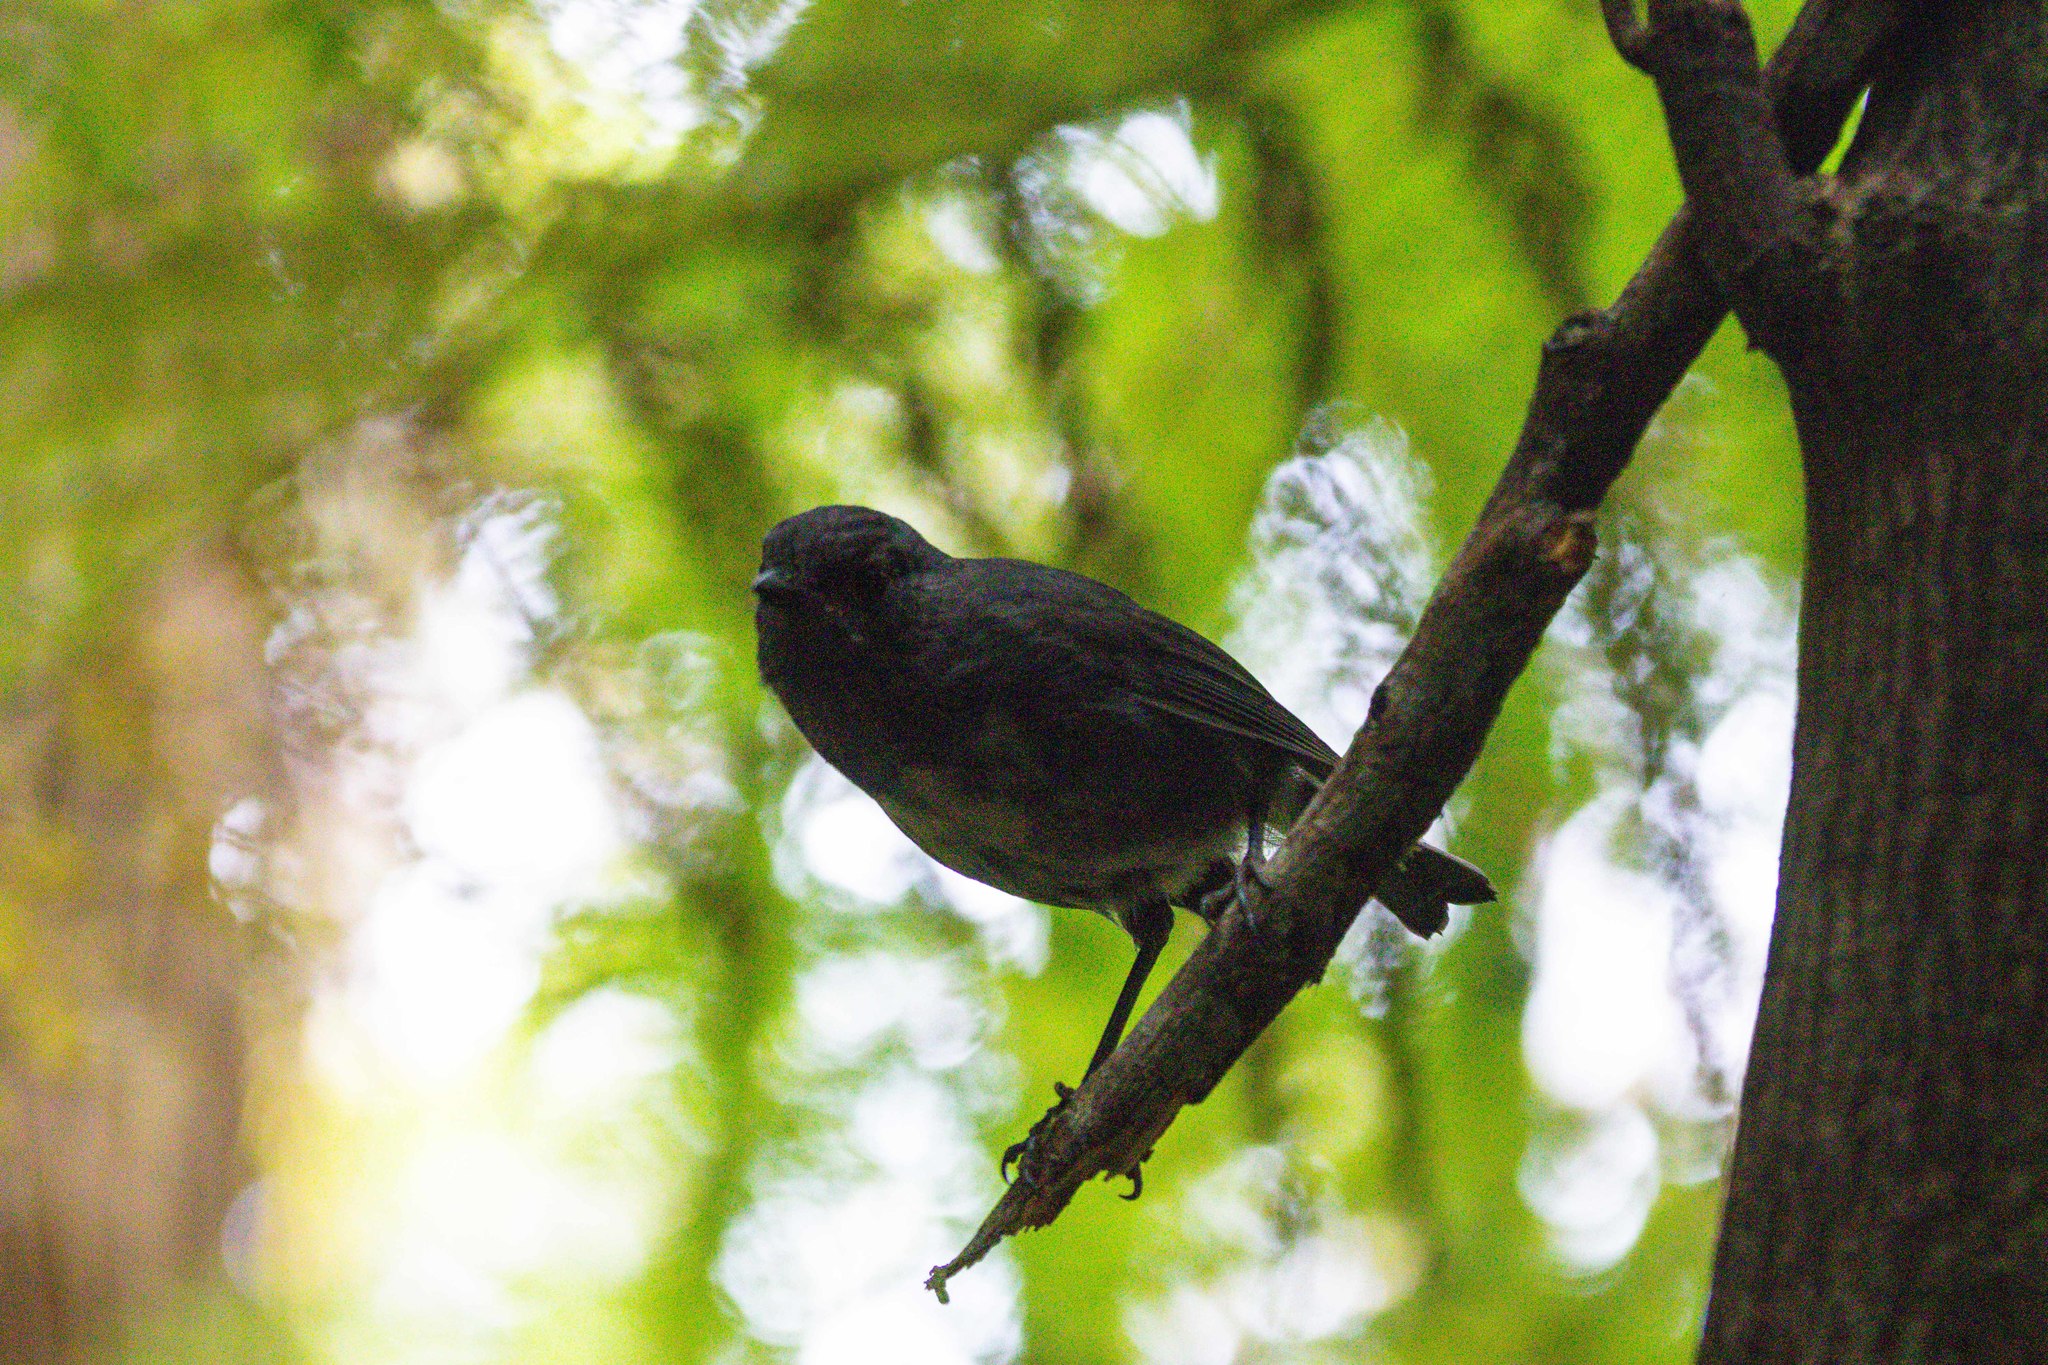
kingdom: Animalia
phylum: Chordata
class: Aves
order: Passeriformes
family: Petroicidae
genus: Petroica
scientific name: Petroica australis
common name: New zealand robin
